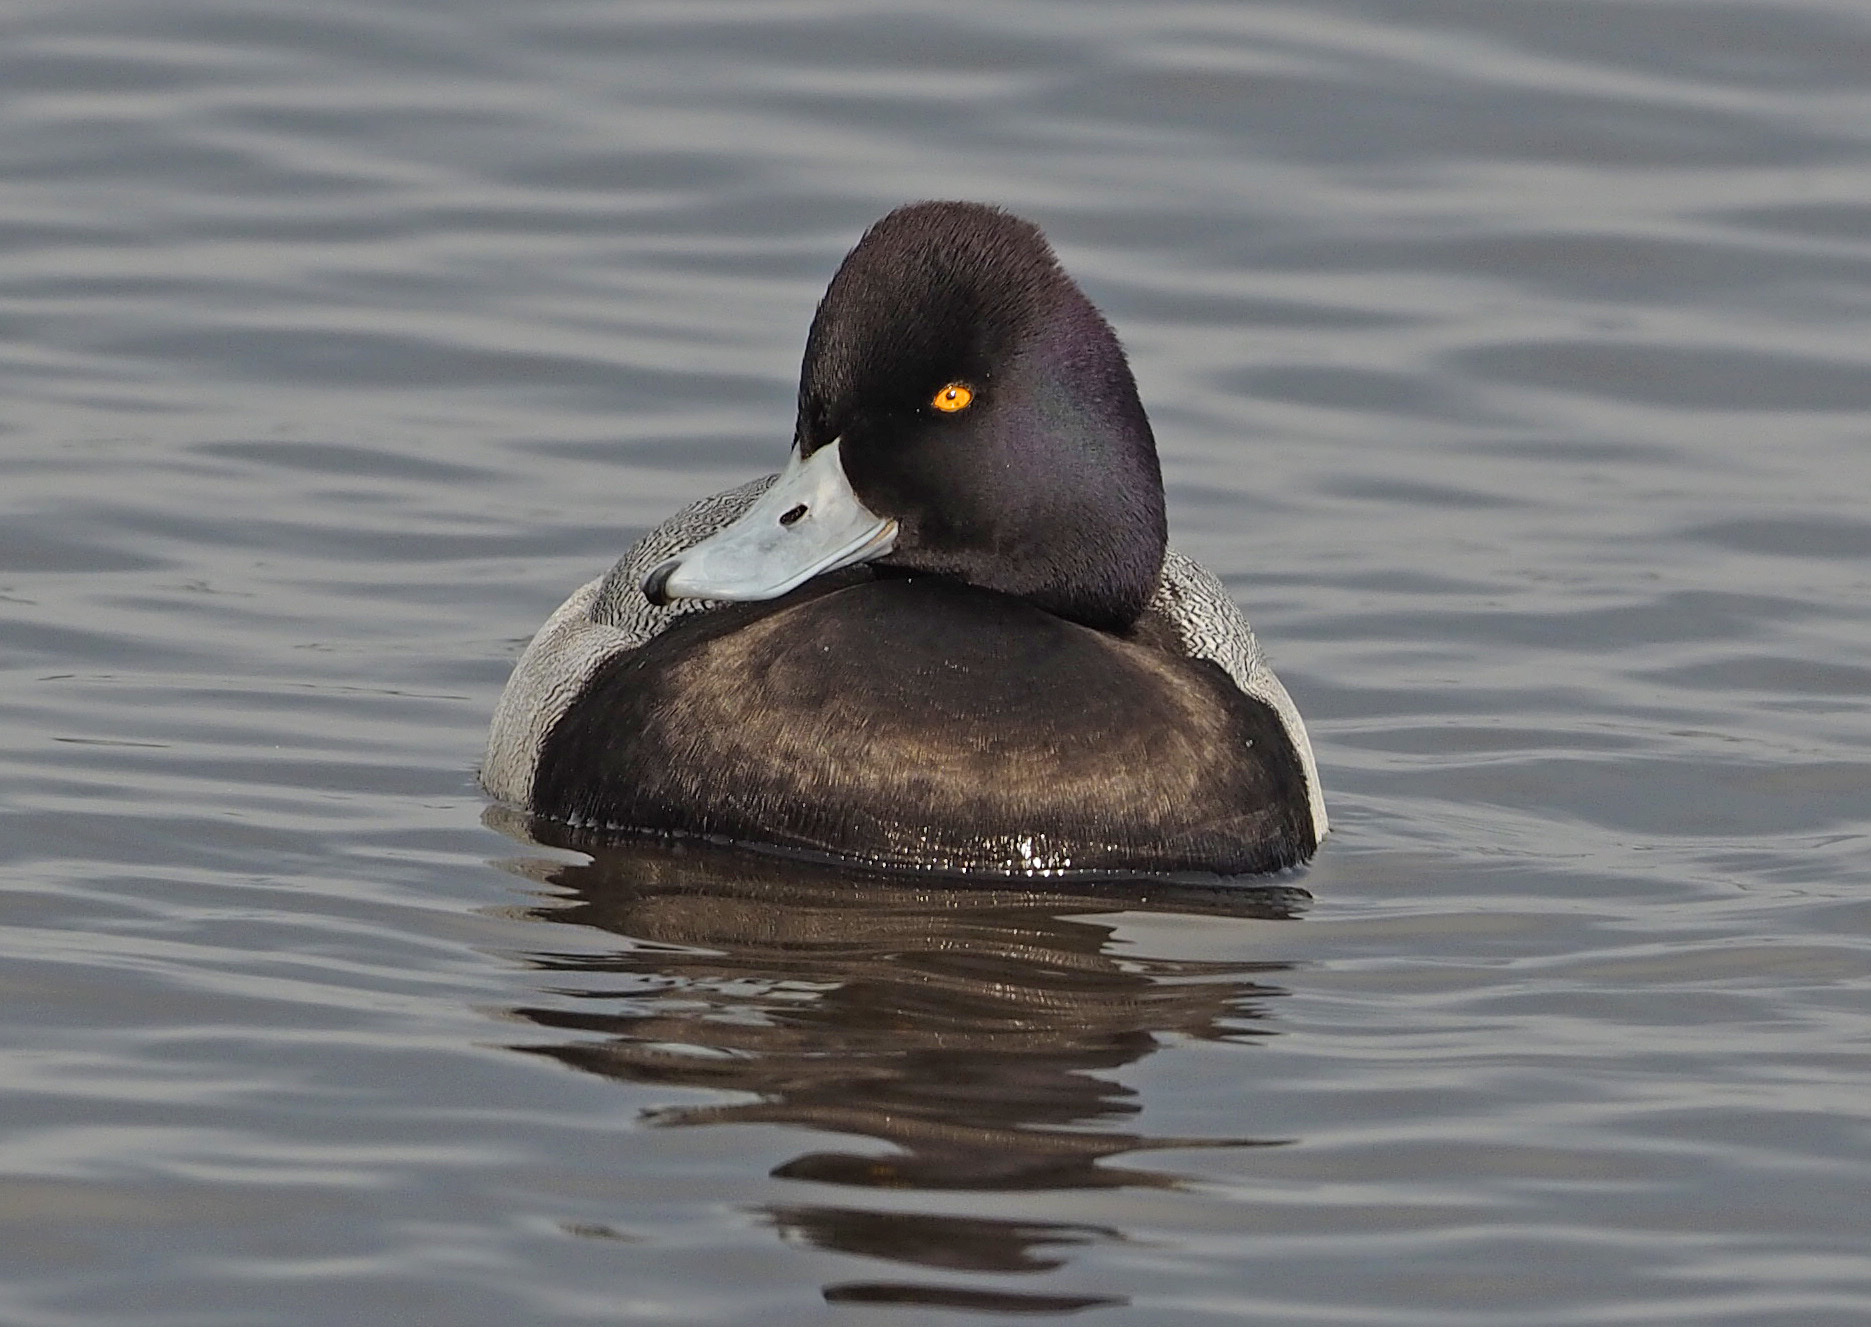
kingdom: Animalia
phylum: Chordata
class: Aves
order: Anseriformes
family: Anatidae
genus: Aythya
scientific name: Aythya affinis
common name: Lesser scaup
